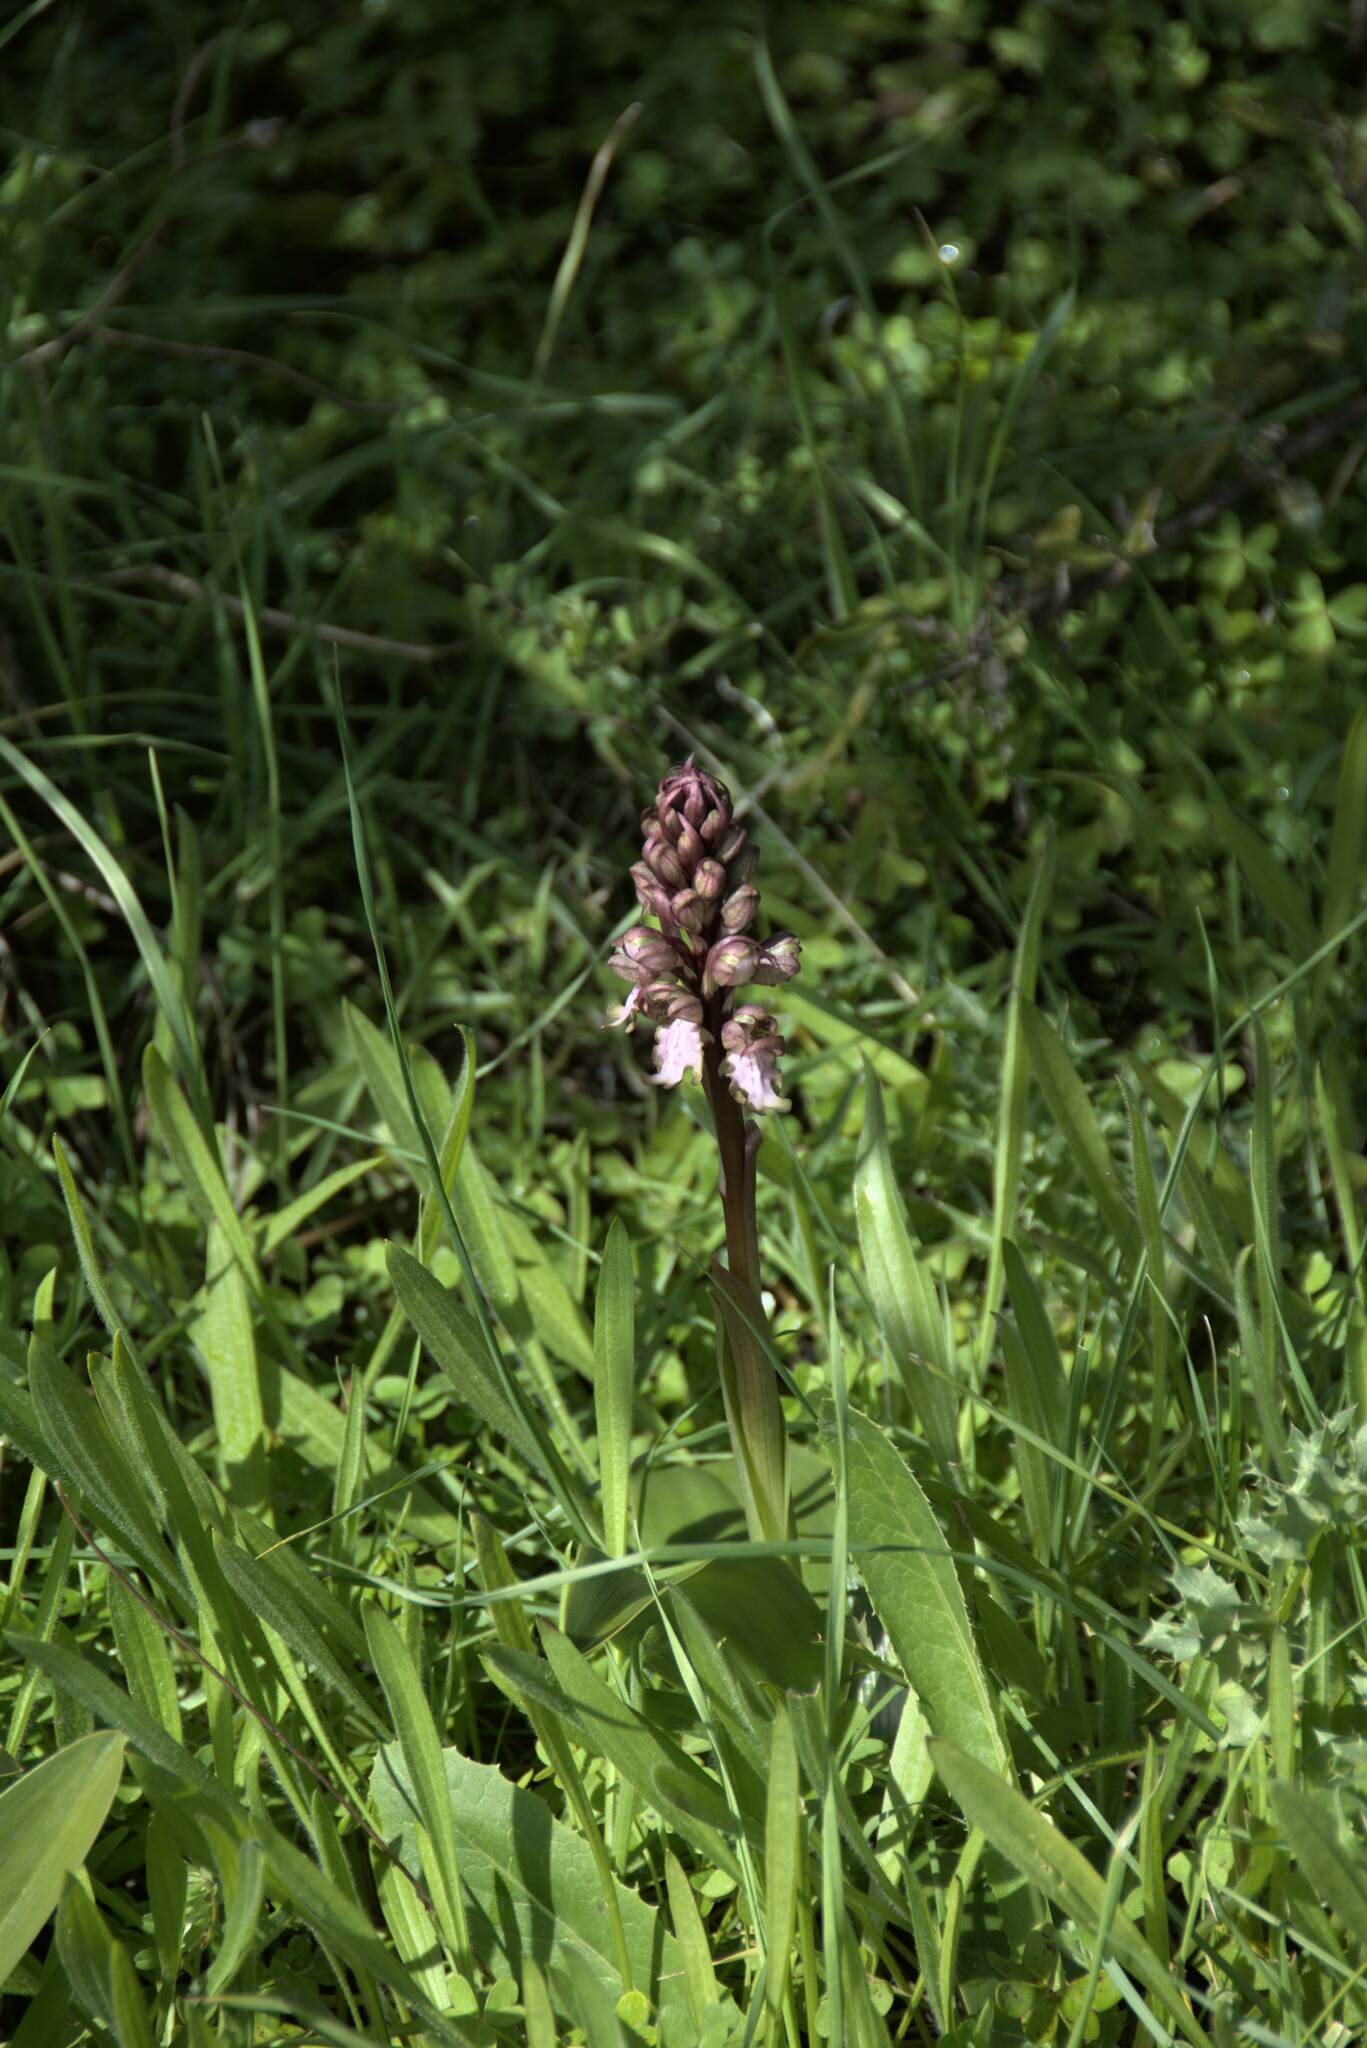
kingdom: Plantae
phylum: Tracheophyta
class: Liliopsida
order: Asparagales
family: Orchidaceae
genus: Himantoglossum
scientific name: Himantoglossum robertianum
